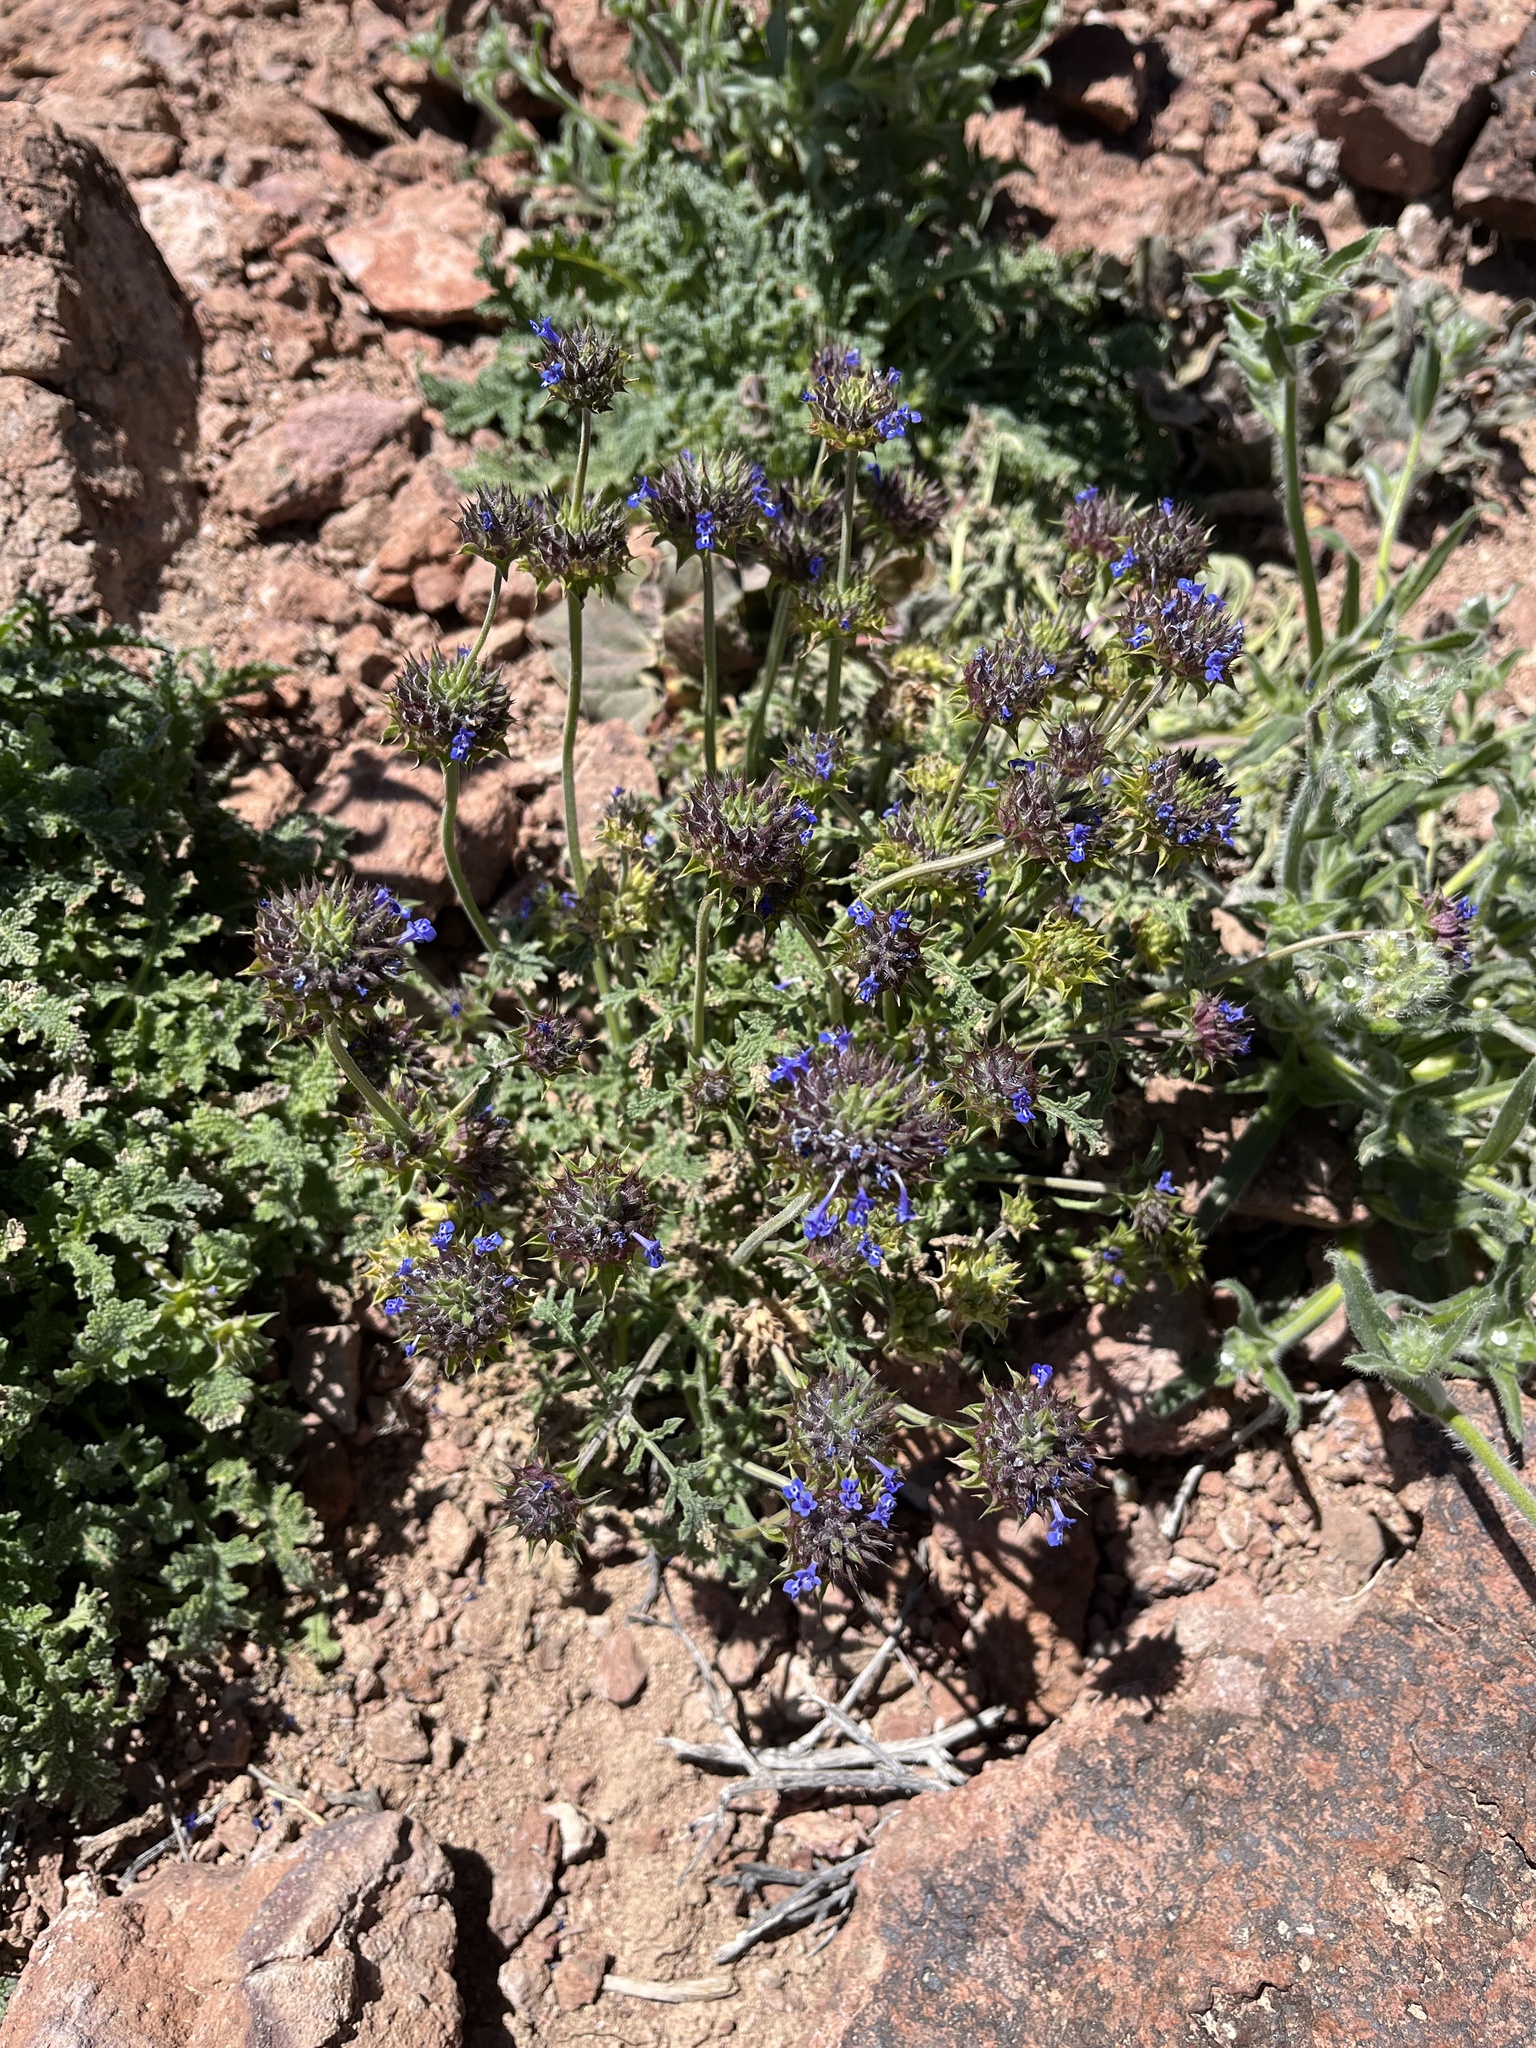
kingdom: Plantae
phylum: Tracheophyta
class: Magnoliopsida
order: Lamiales
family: Lamiaceae
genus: Salvia
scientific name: Salvia columbariae
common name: Chia
